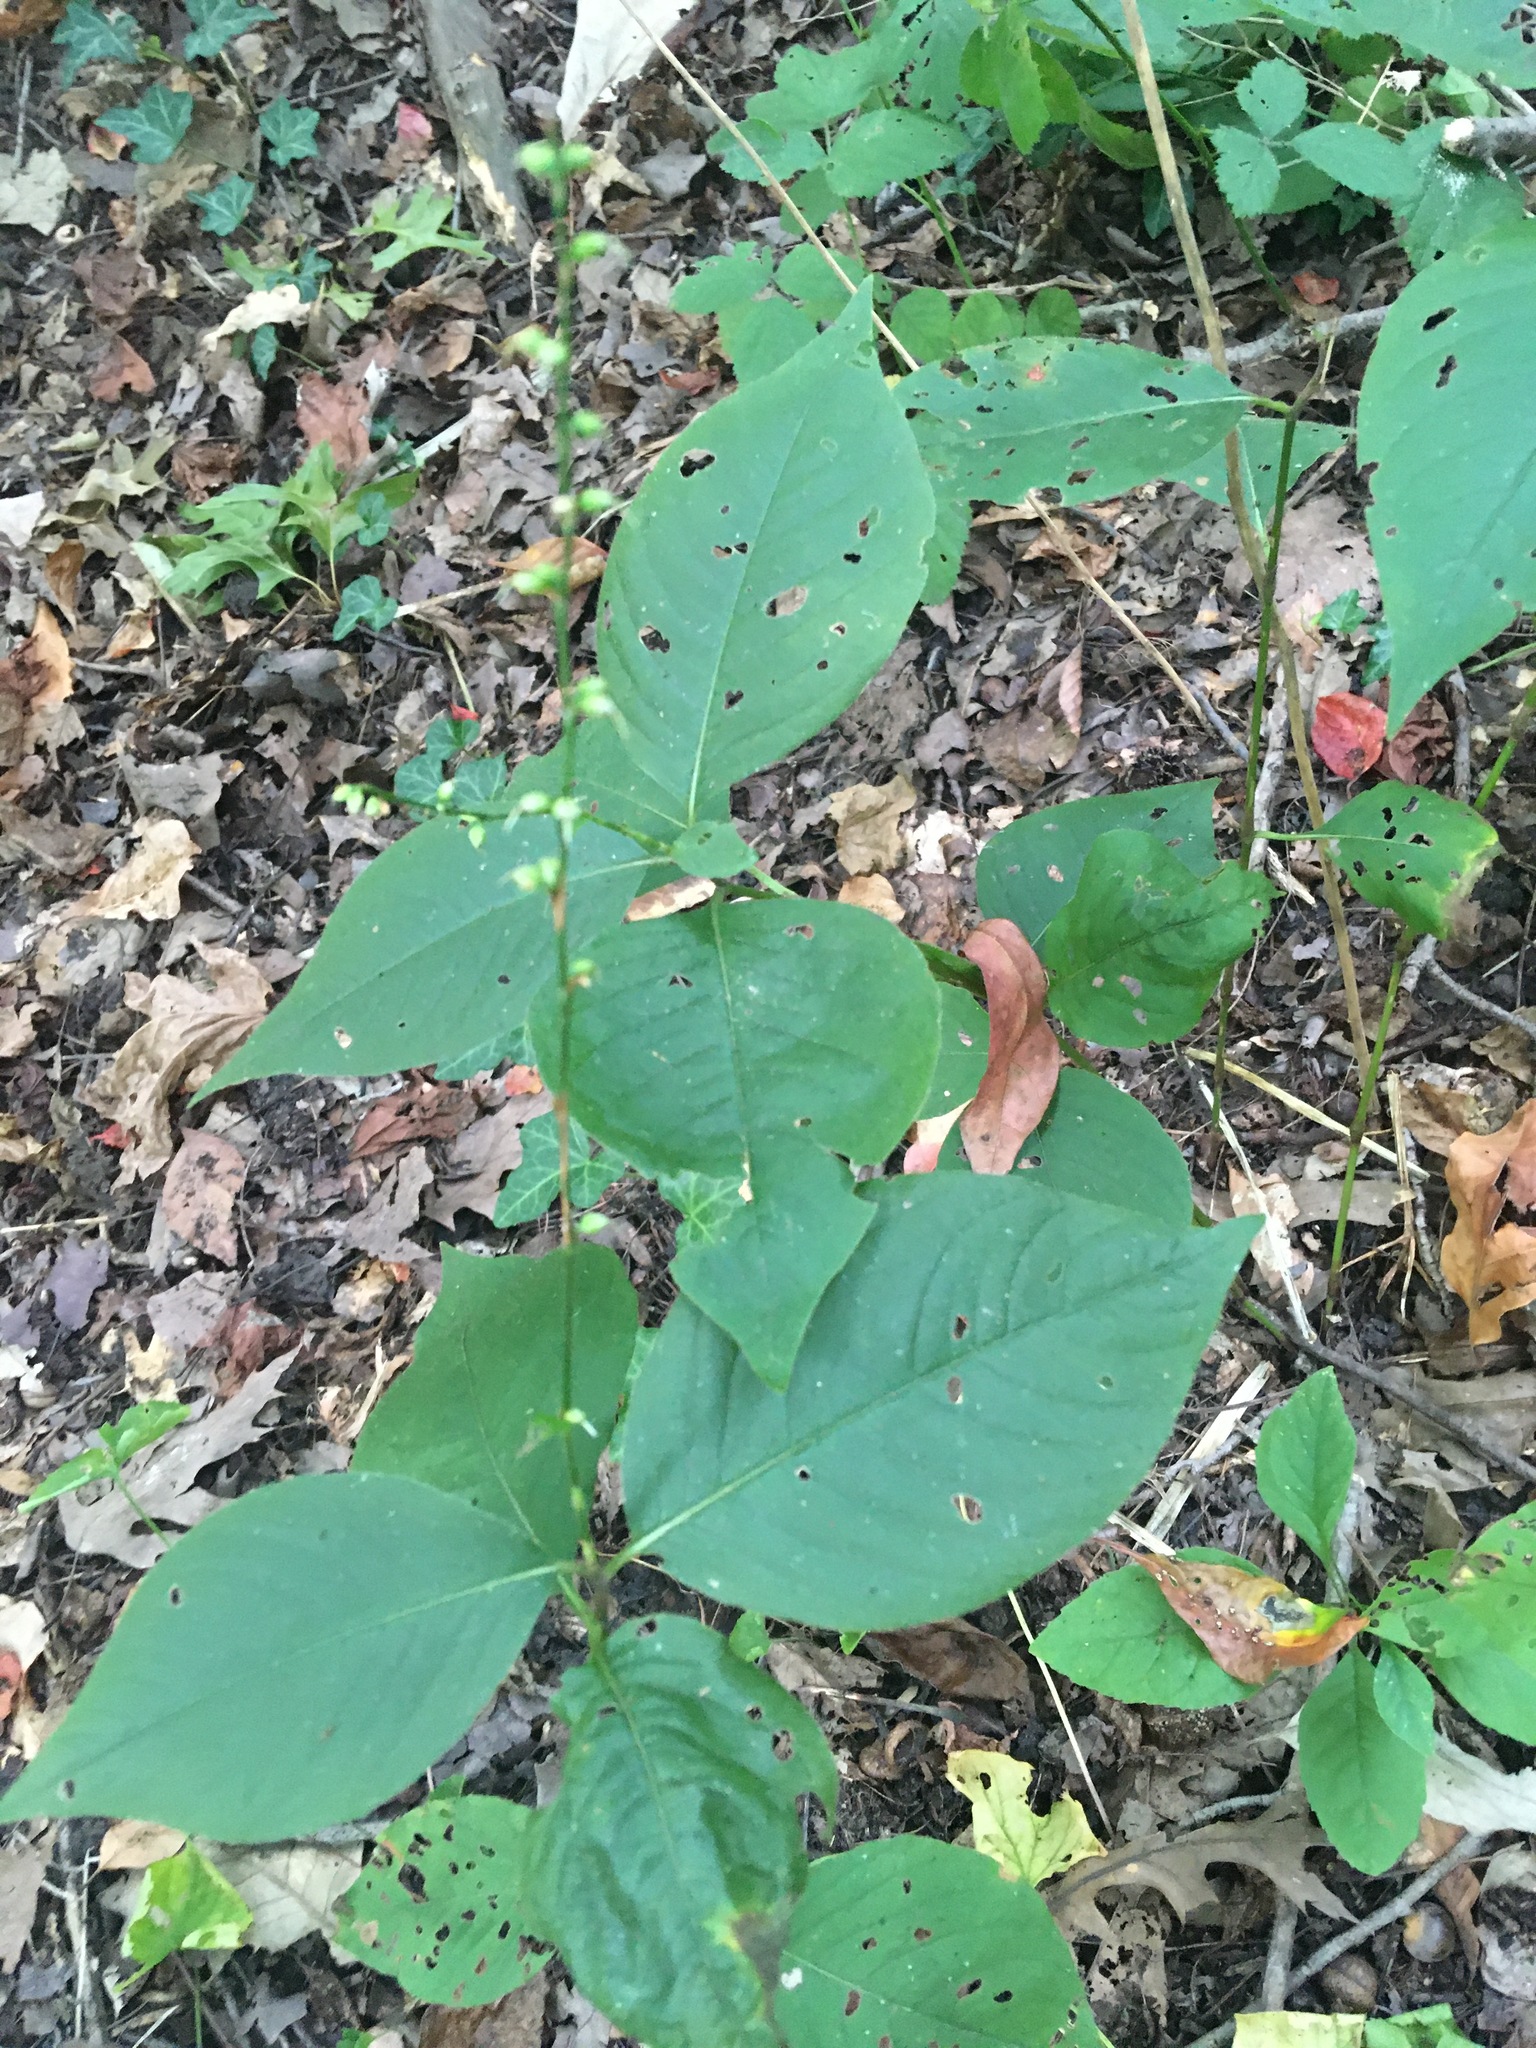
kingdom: Plantae
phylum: Tracheophyta
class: Magnoliopsida
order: Caryophyllales
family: Polygonaceae
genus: Persicaria
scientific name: Persicaria virginiana
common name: Jumpseed
